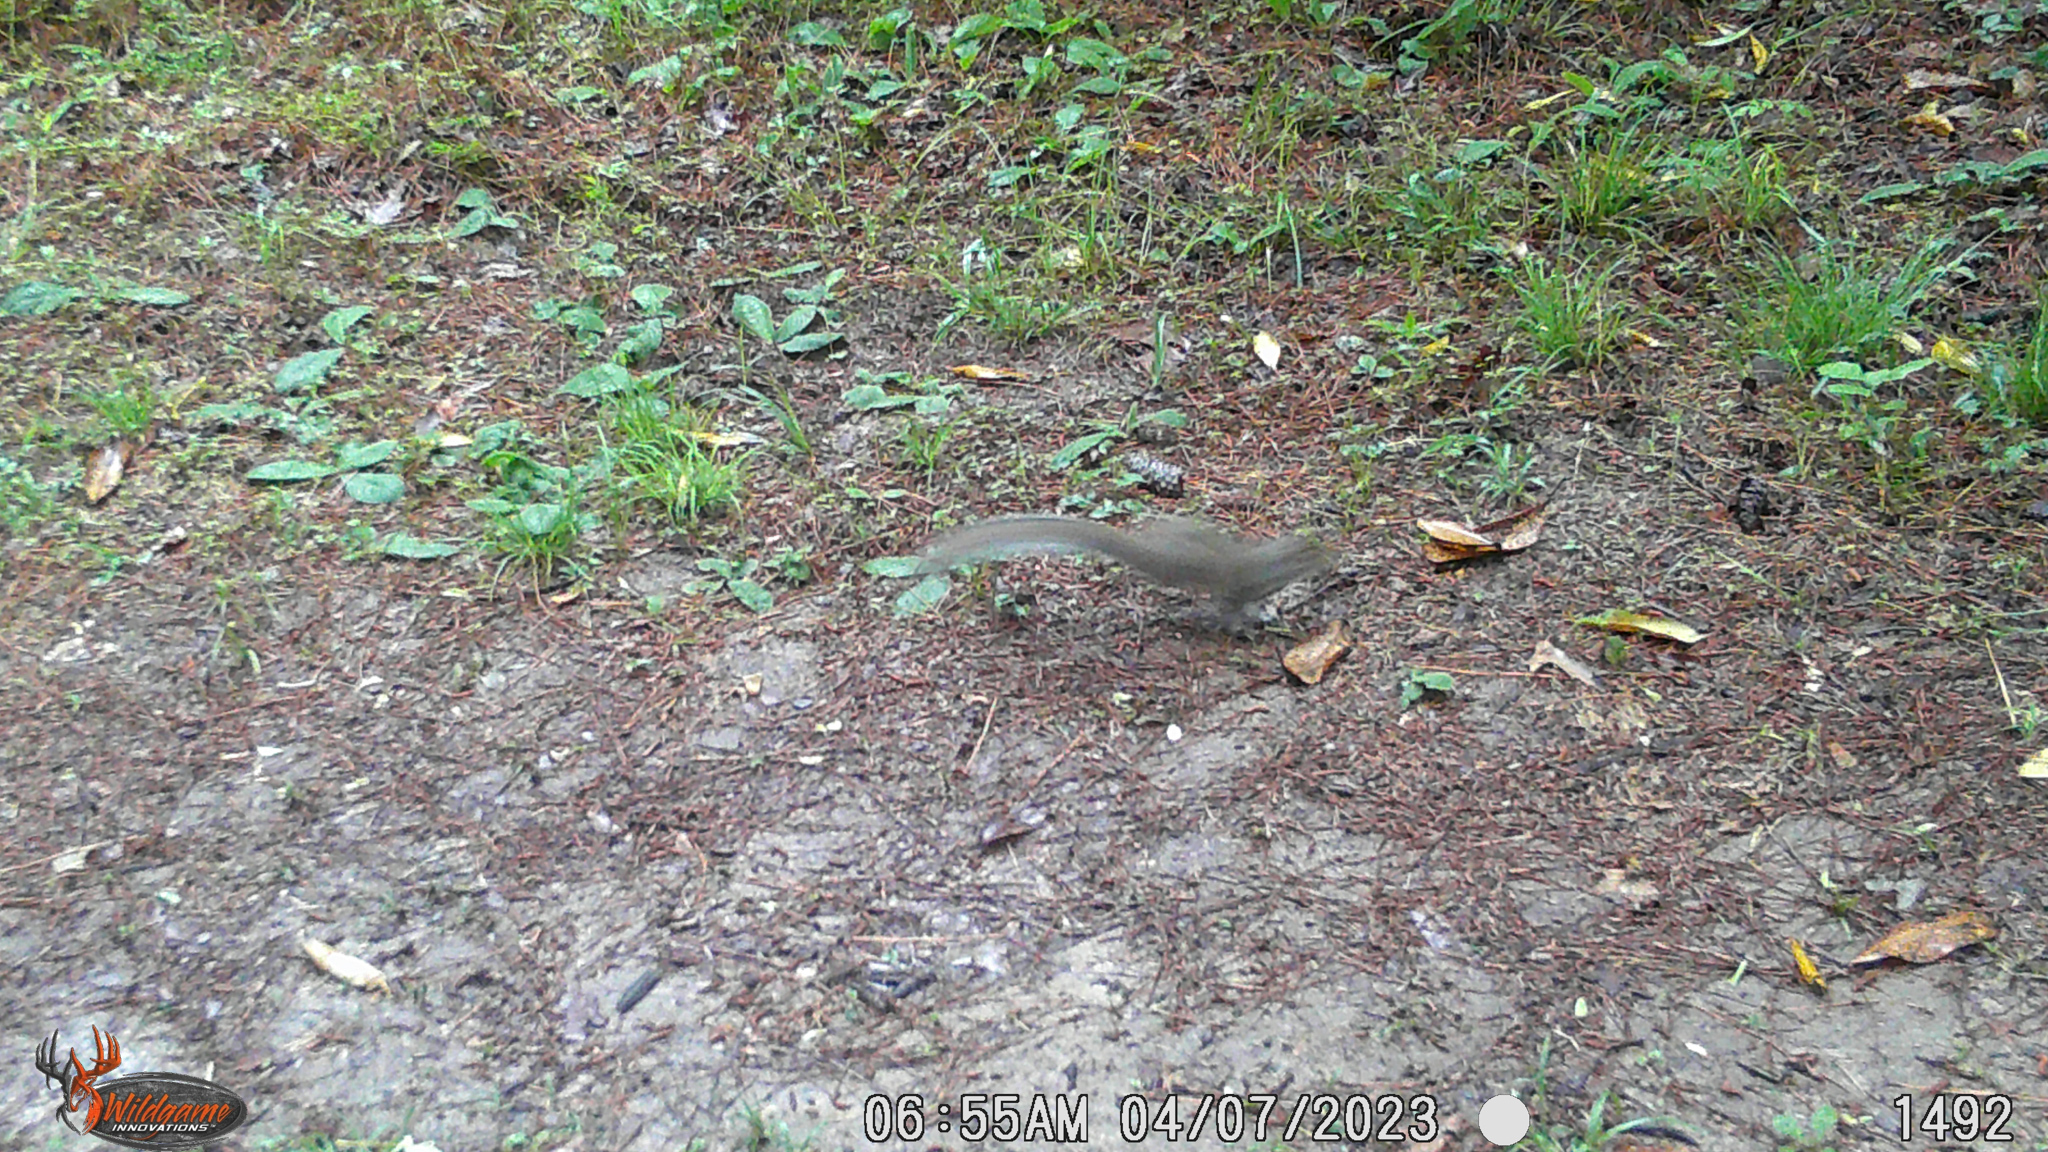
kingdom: Animalia
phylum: Chordata
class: Mammalia
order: Rodentia
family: Sciuridae
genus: Sciurus
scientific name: Sciurus carolinensis
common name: Eastern gray squirrel
